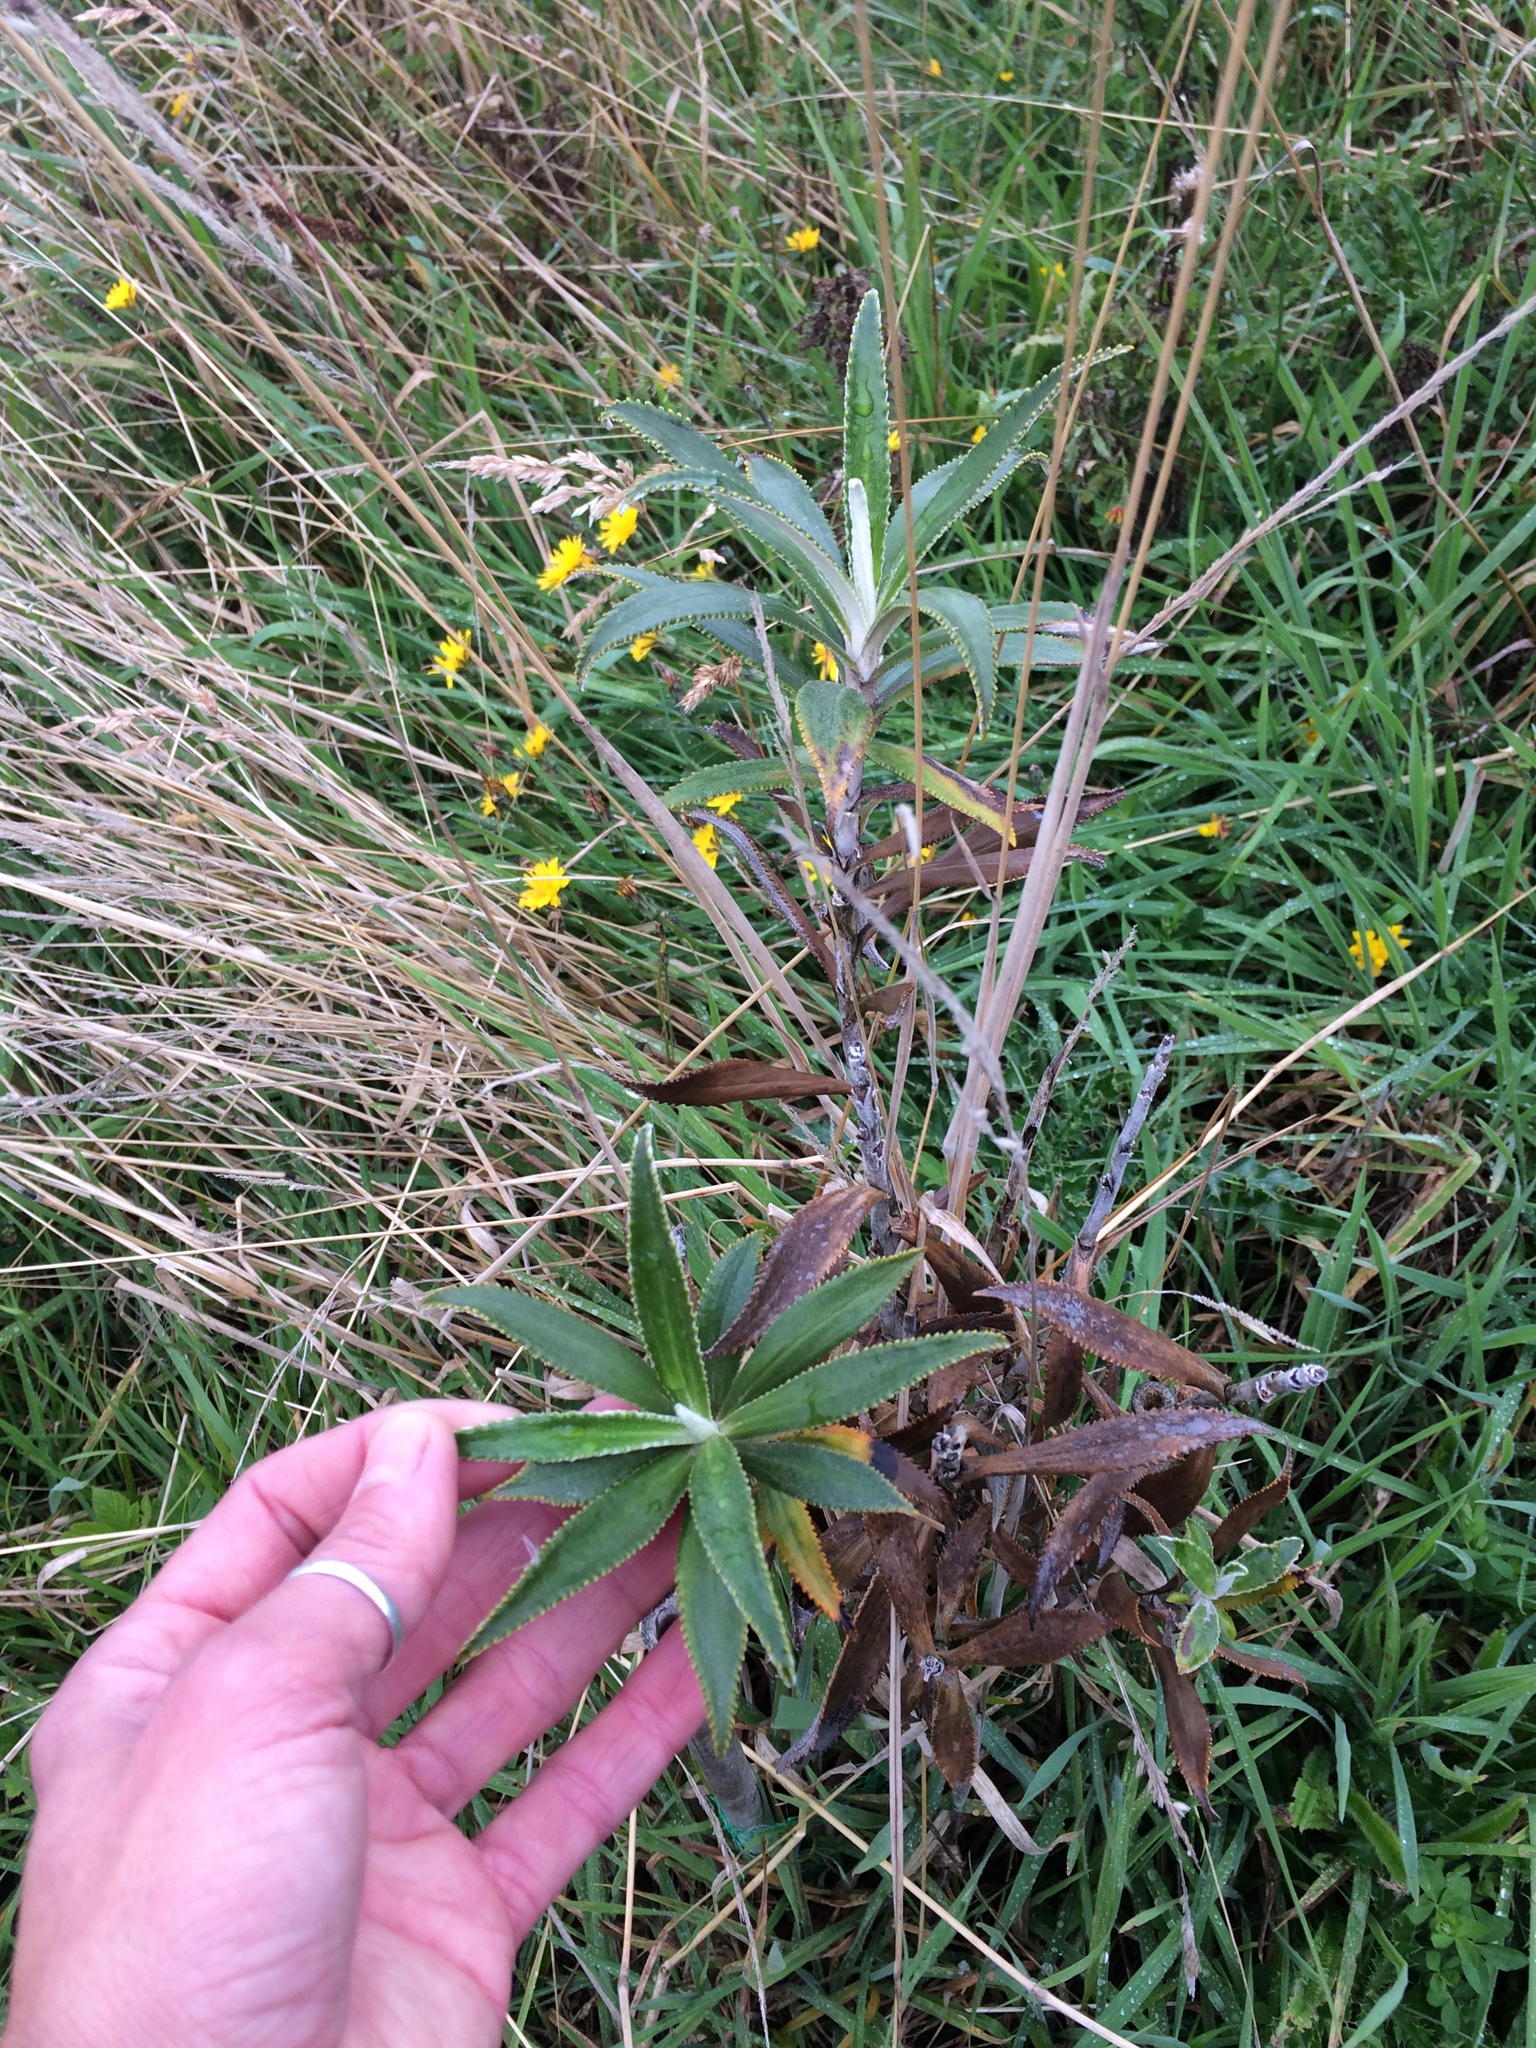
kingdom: Plantae
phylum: Tracheophyta
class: Magnoliopsida
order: Asterales
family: Asteraceae
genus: Macrolearia
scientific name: Macrolearia angustifolia
